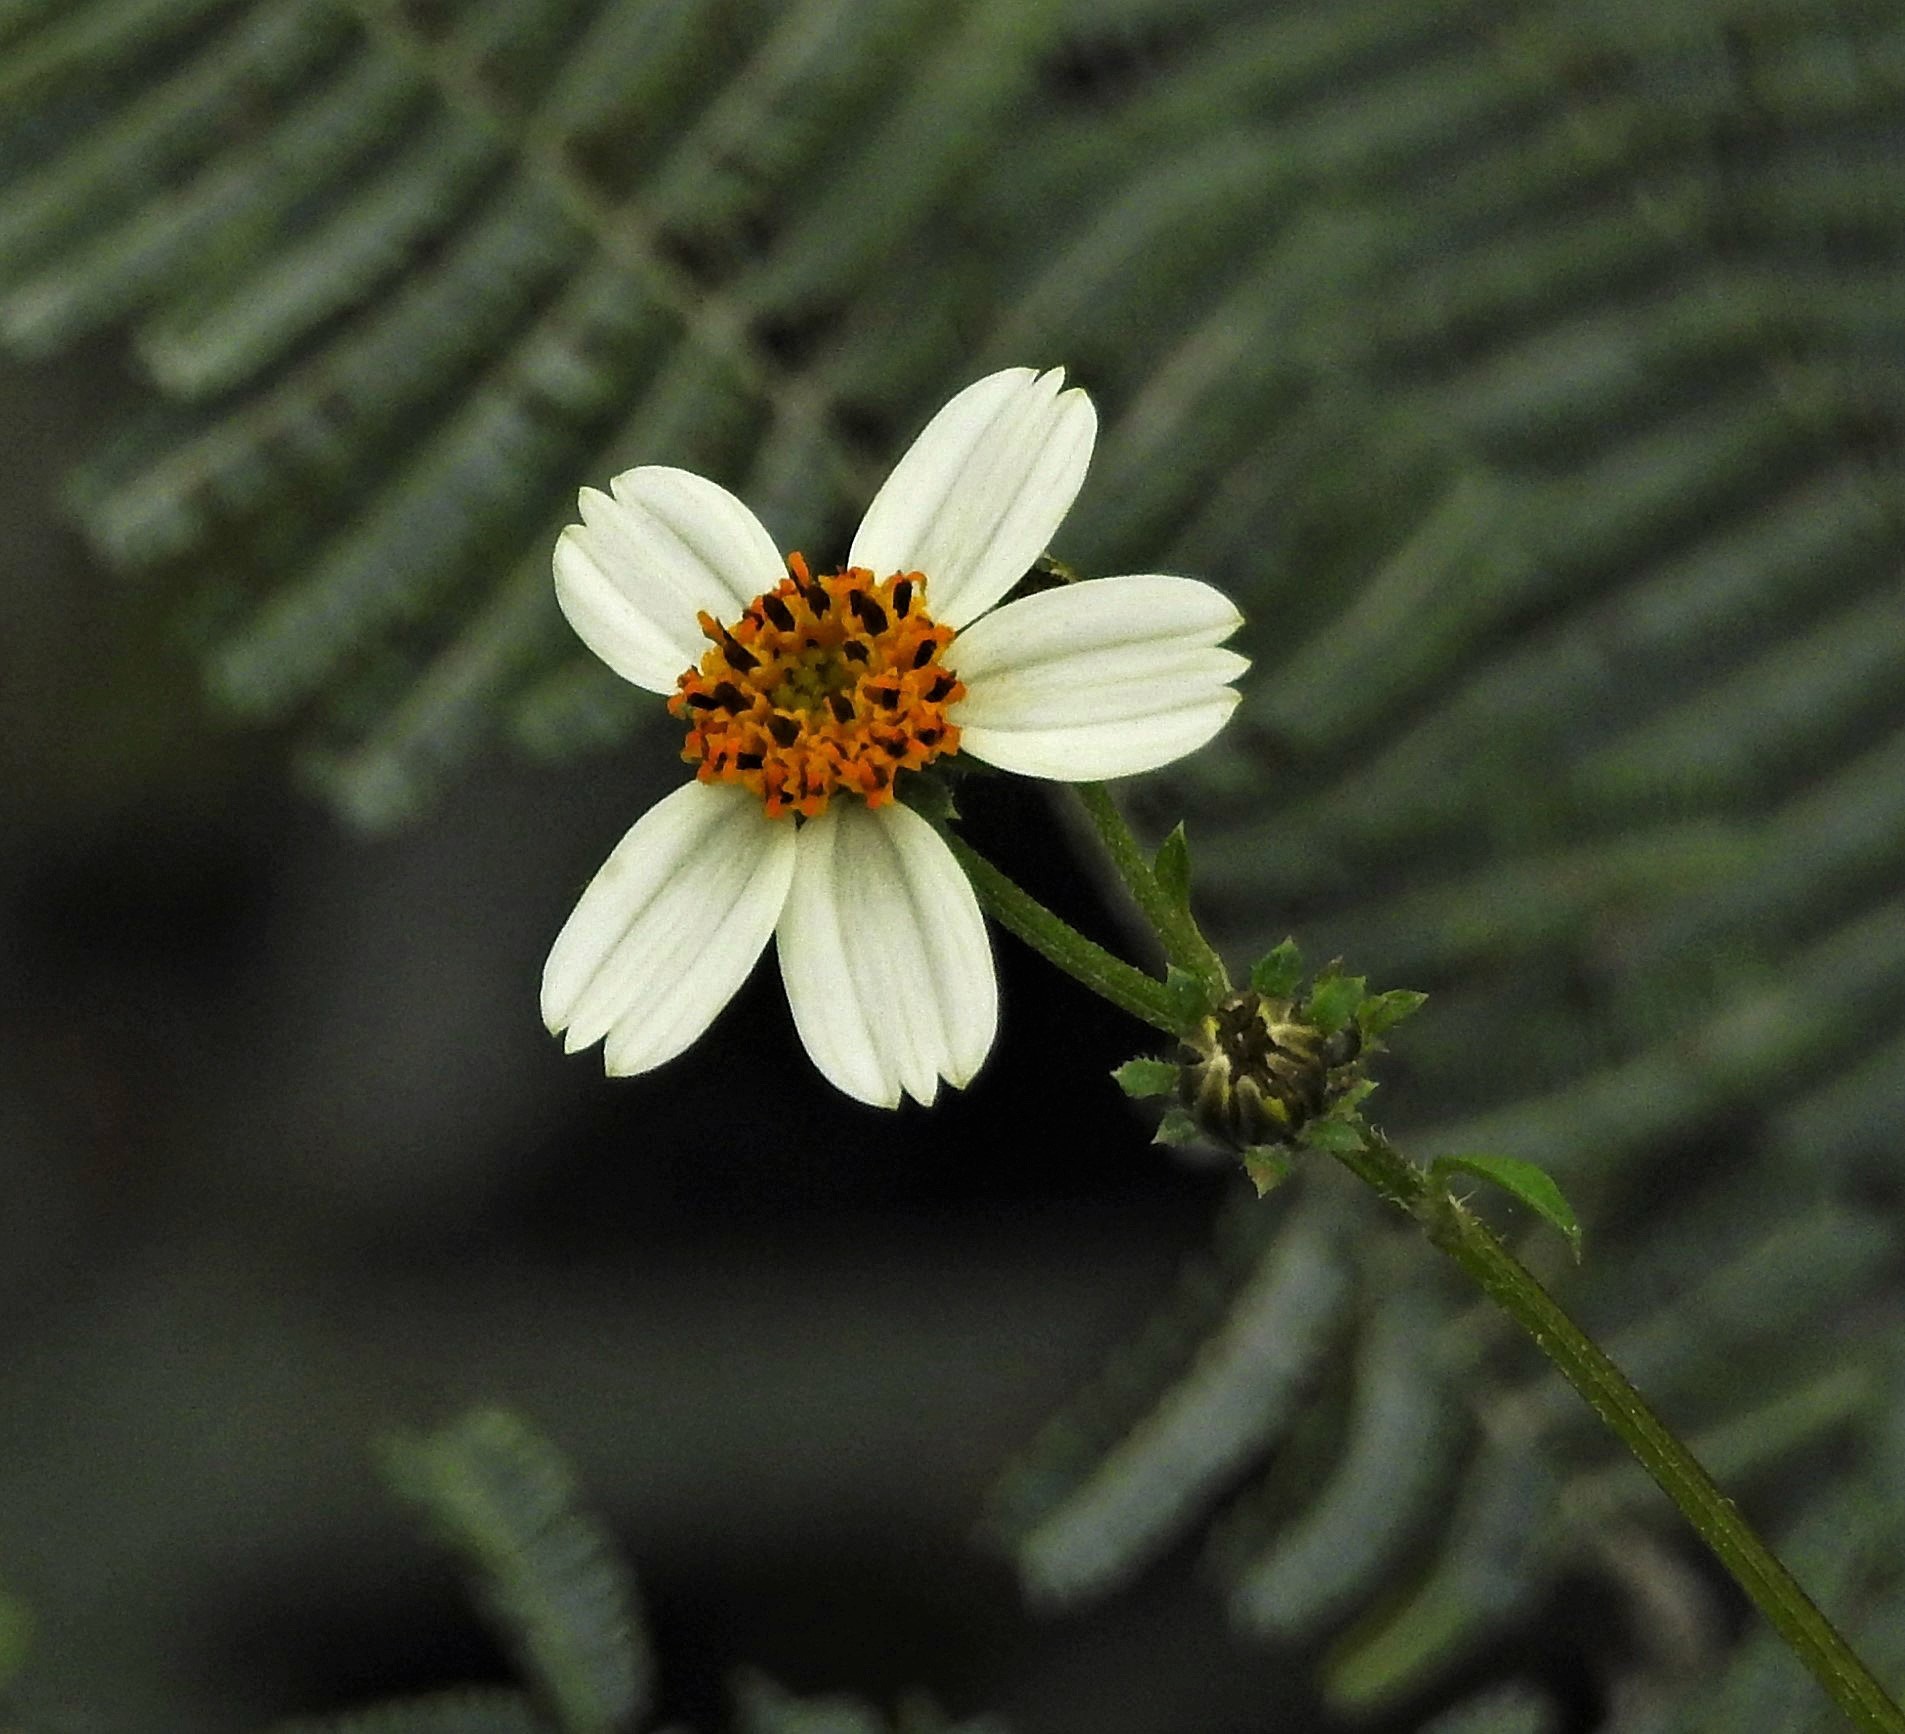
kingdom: Plantae
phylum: Tracheophyta
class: Magnoliopsida
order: Asterales
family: Asteraceae
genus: Bidens
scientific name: Bidens pilosa
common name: Black-jack
